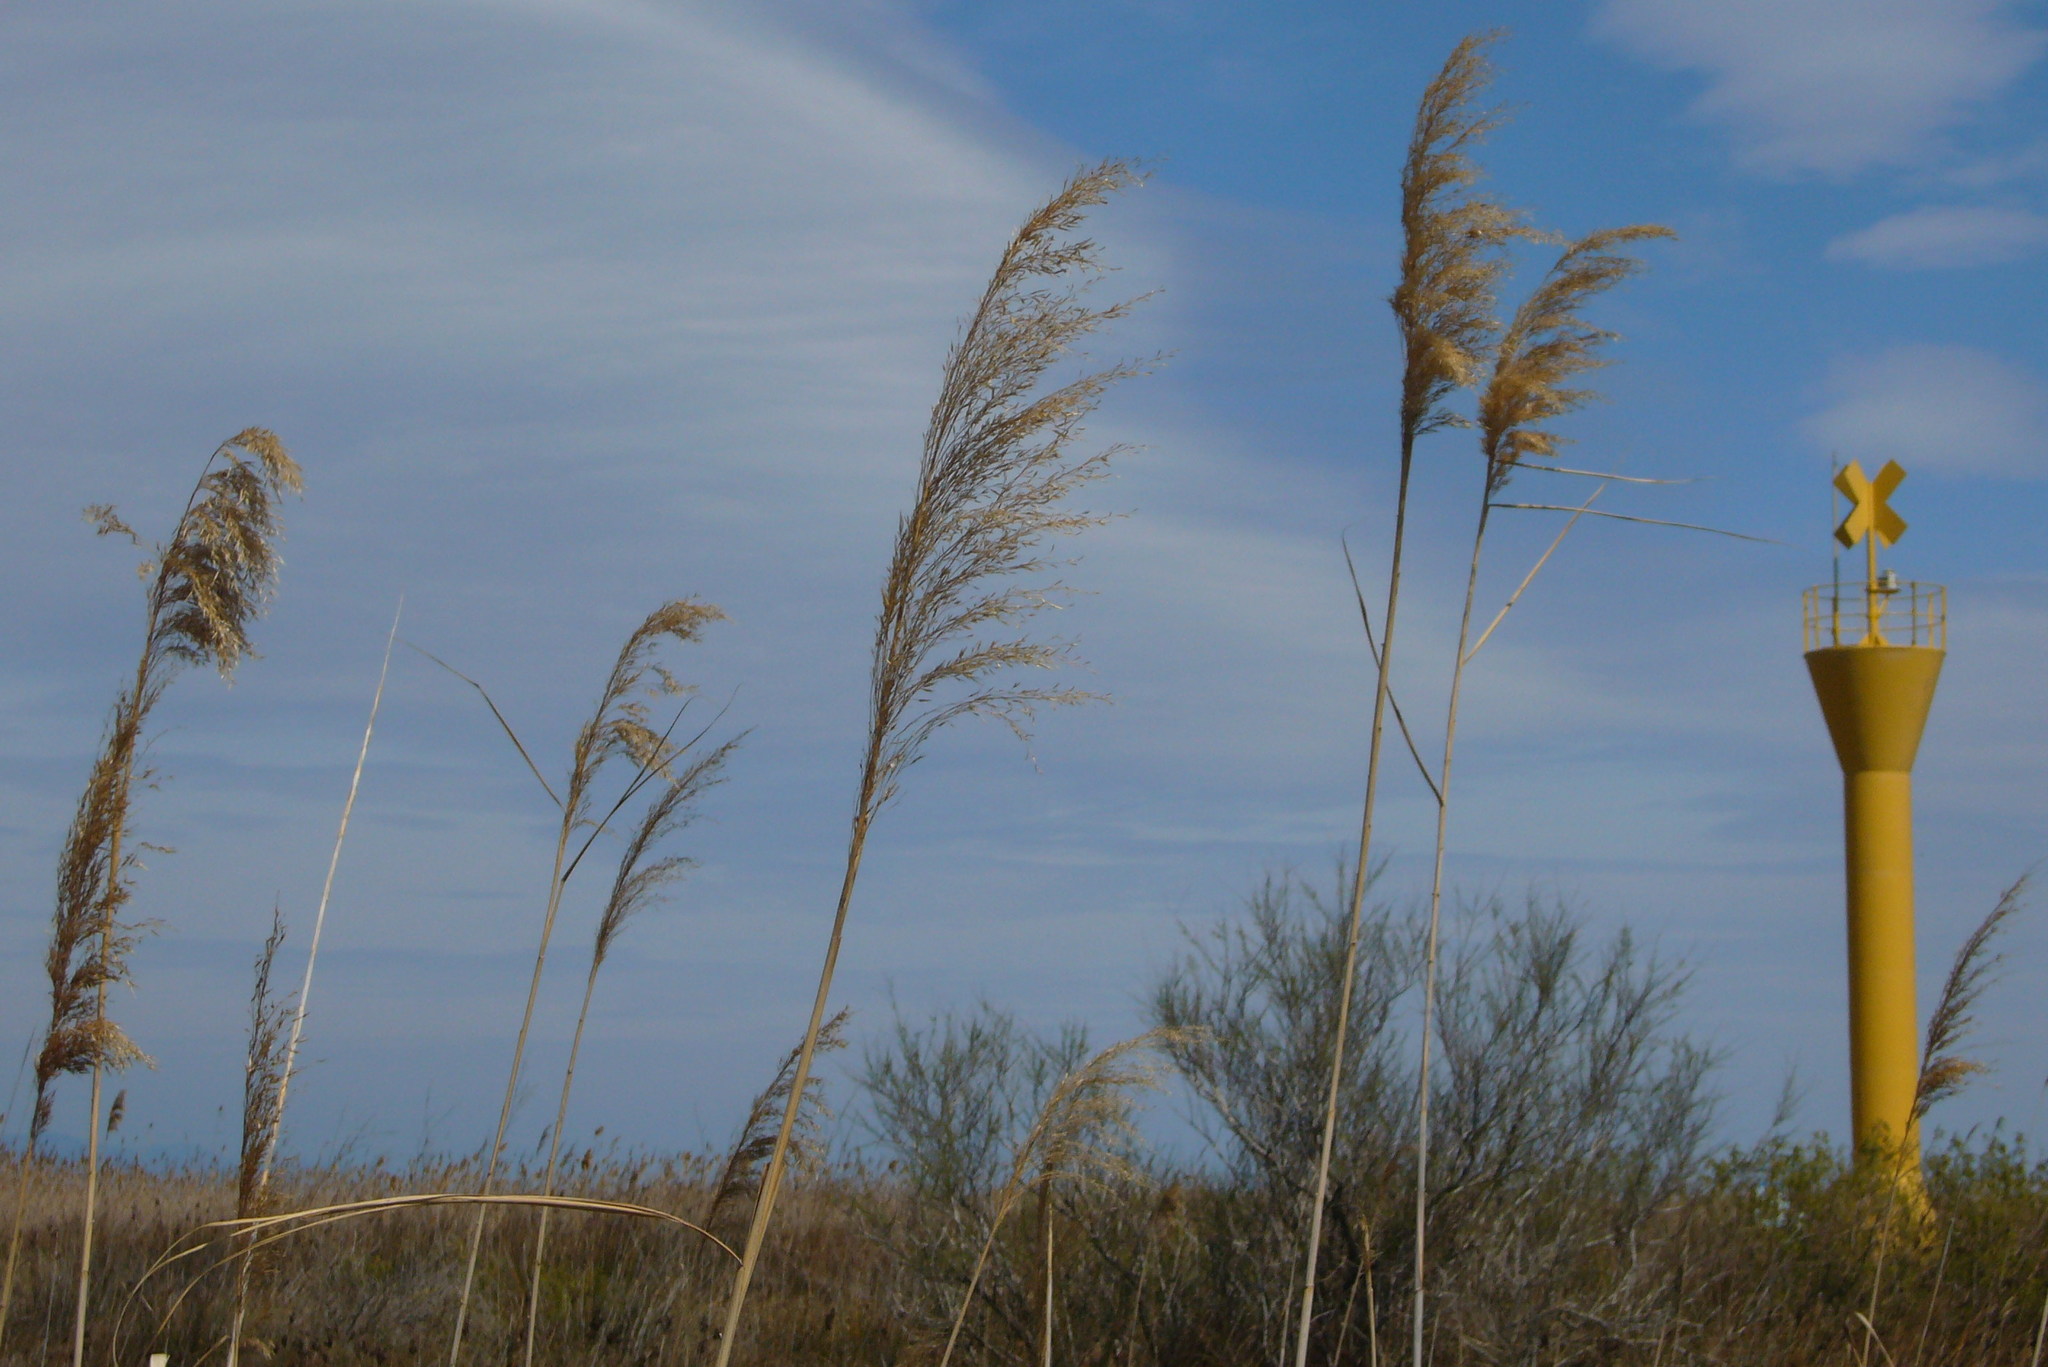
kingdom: Plantae
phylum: Tracheophyta
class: Liliopsida
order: Poales
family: Poaceae
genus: Phragmites
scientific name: Phragmites australis
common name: Common reed
